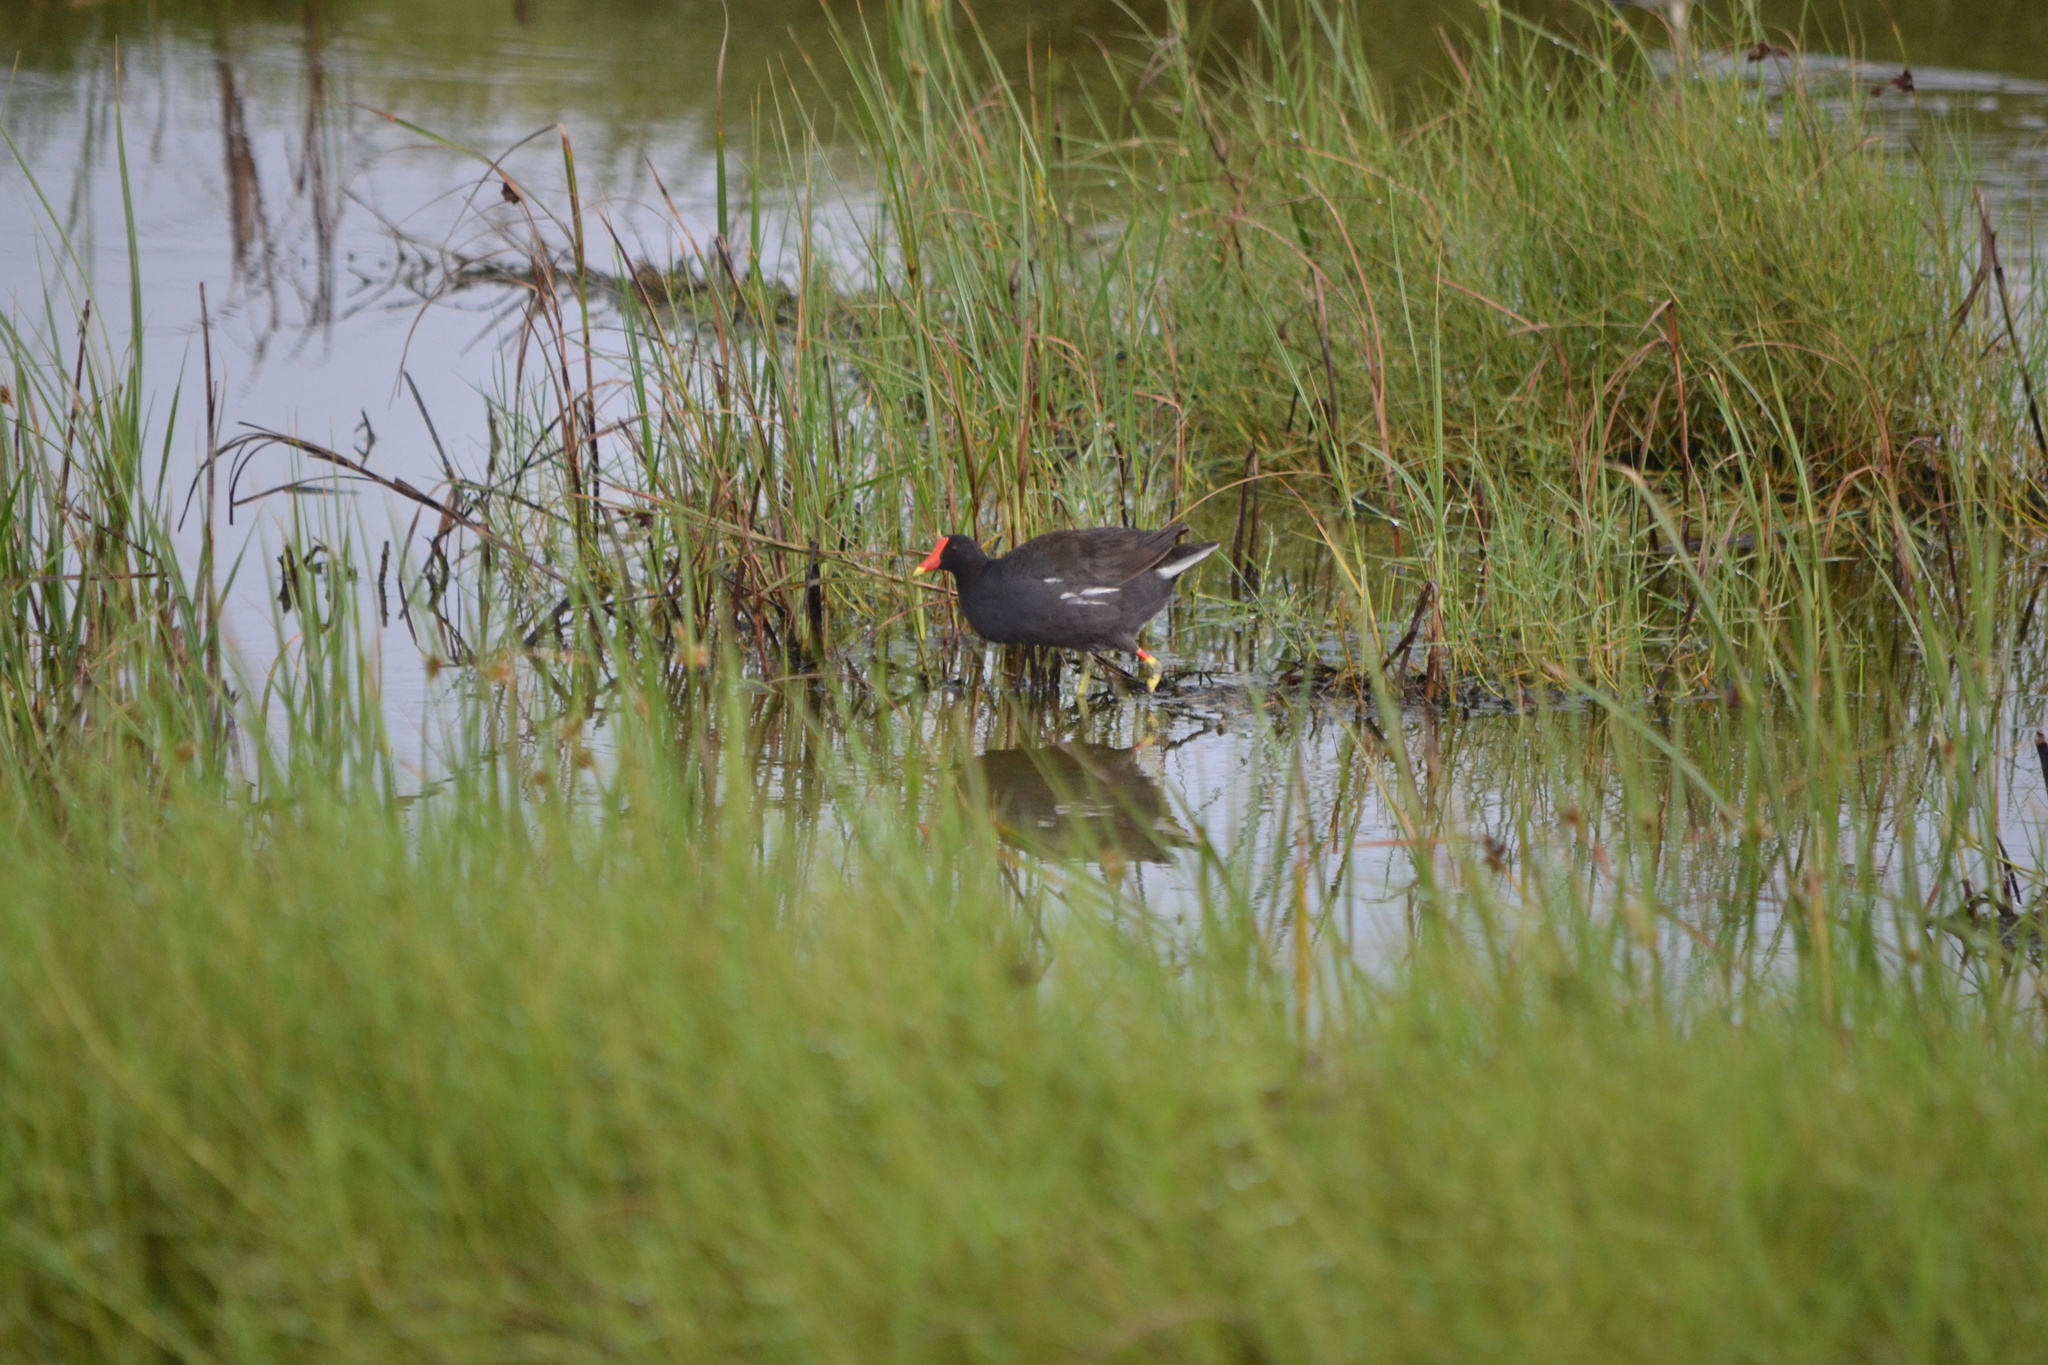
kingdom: Animalia
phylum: Chordata
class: Aves
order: Gruiformes
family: Rallidae
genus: Gallinula
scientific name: Gallinula chloropus
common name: Common moorhen
